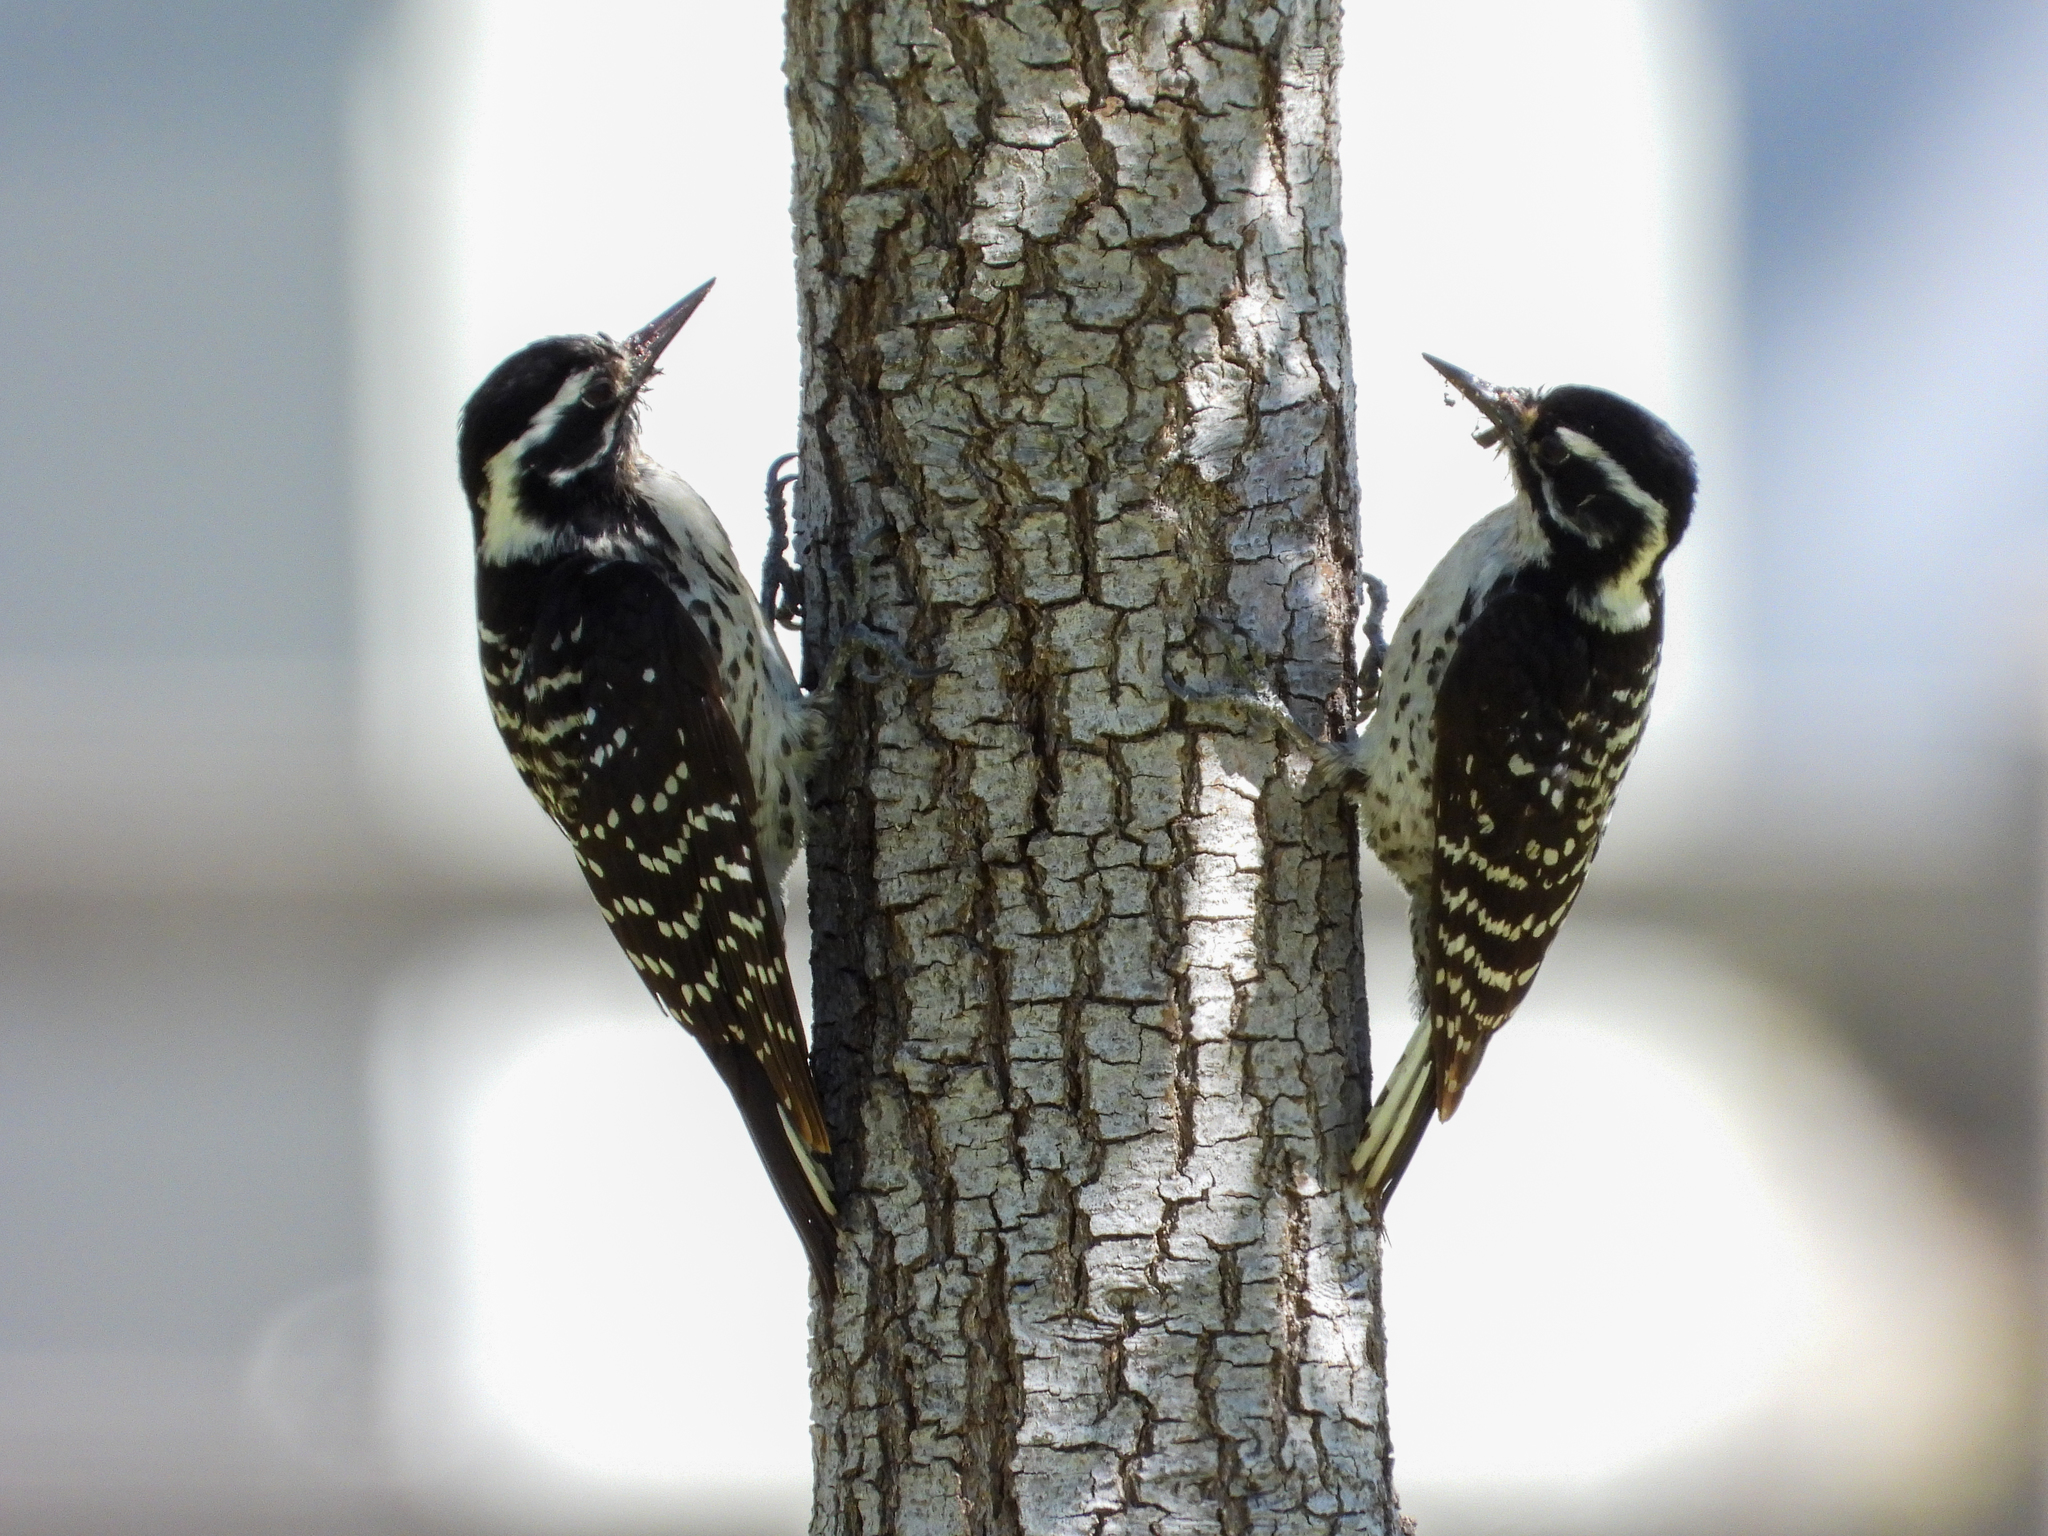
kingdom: Animalia
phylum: Chordata
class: Aves
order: Piciformes
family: Picidae
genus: Dryobates
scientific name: Dryobates nuttallii
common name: Nuttall's woodpecker
